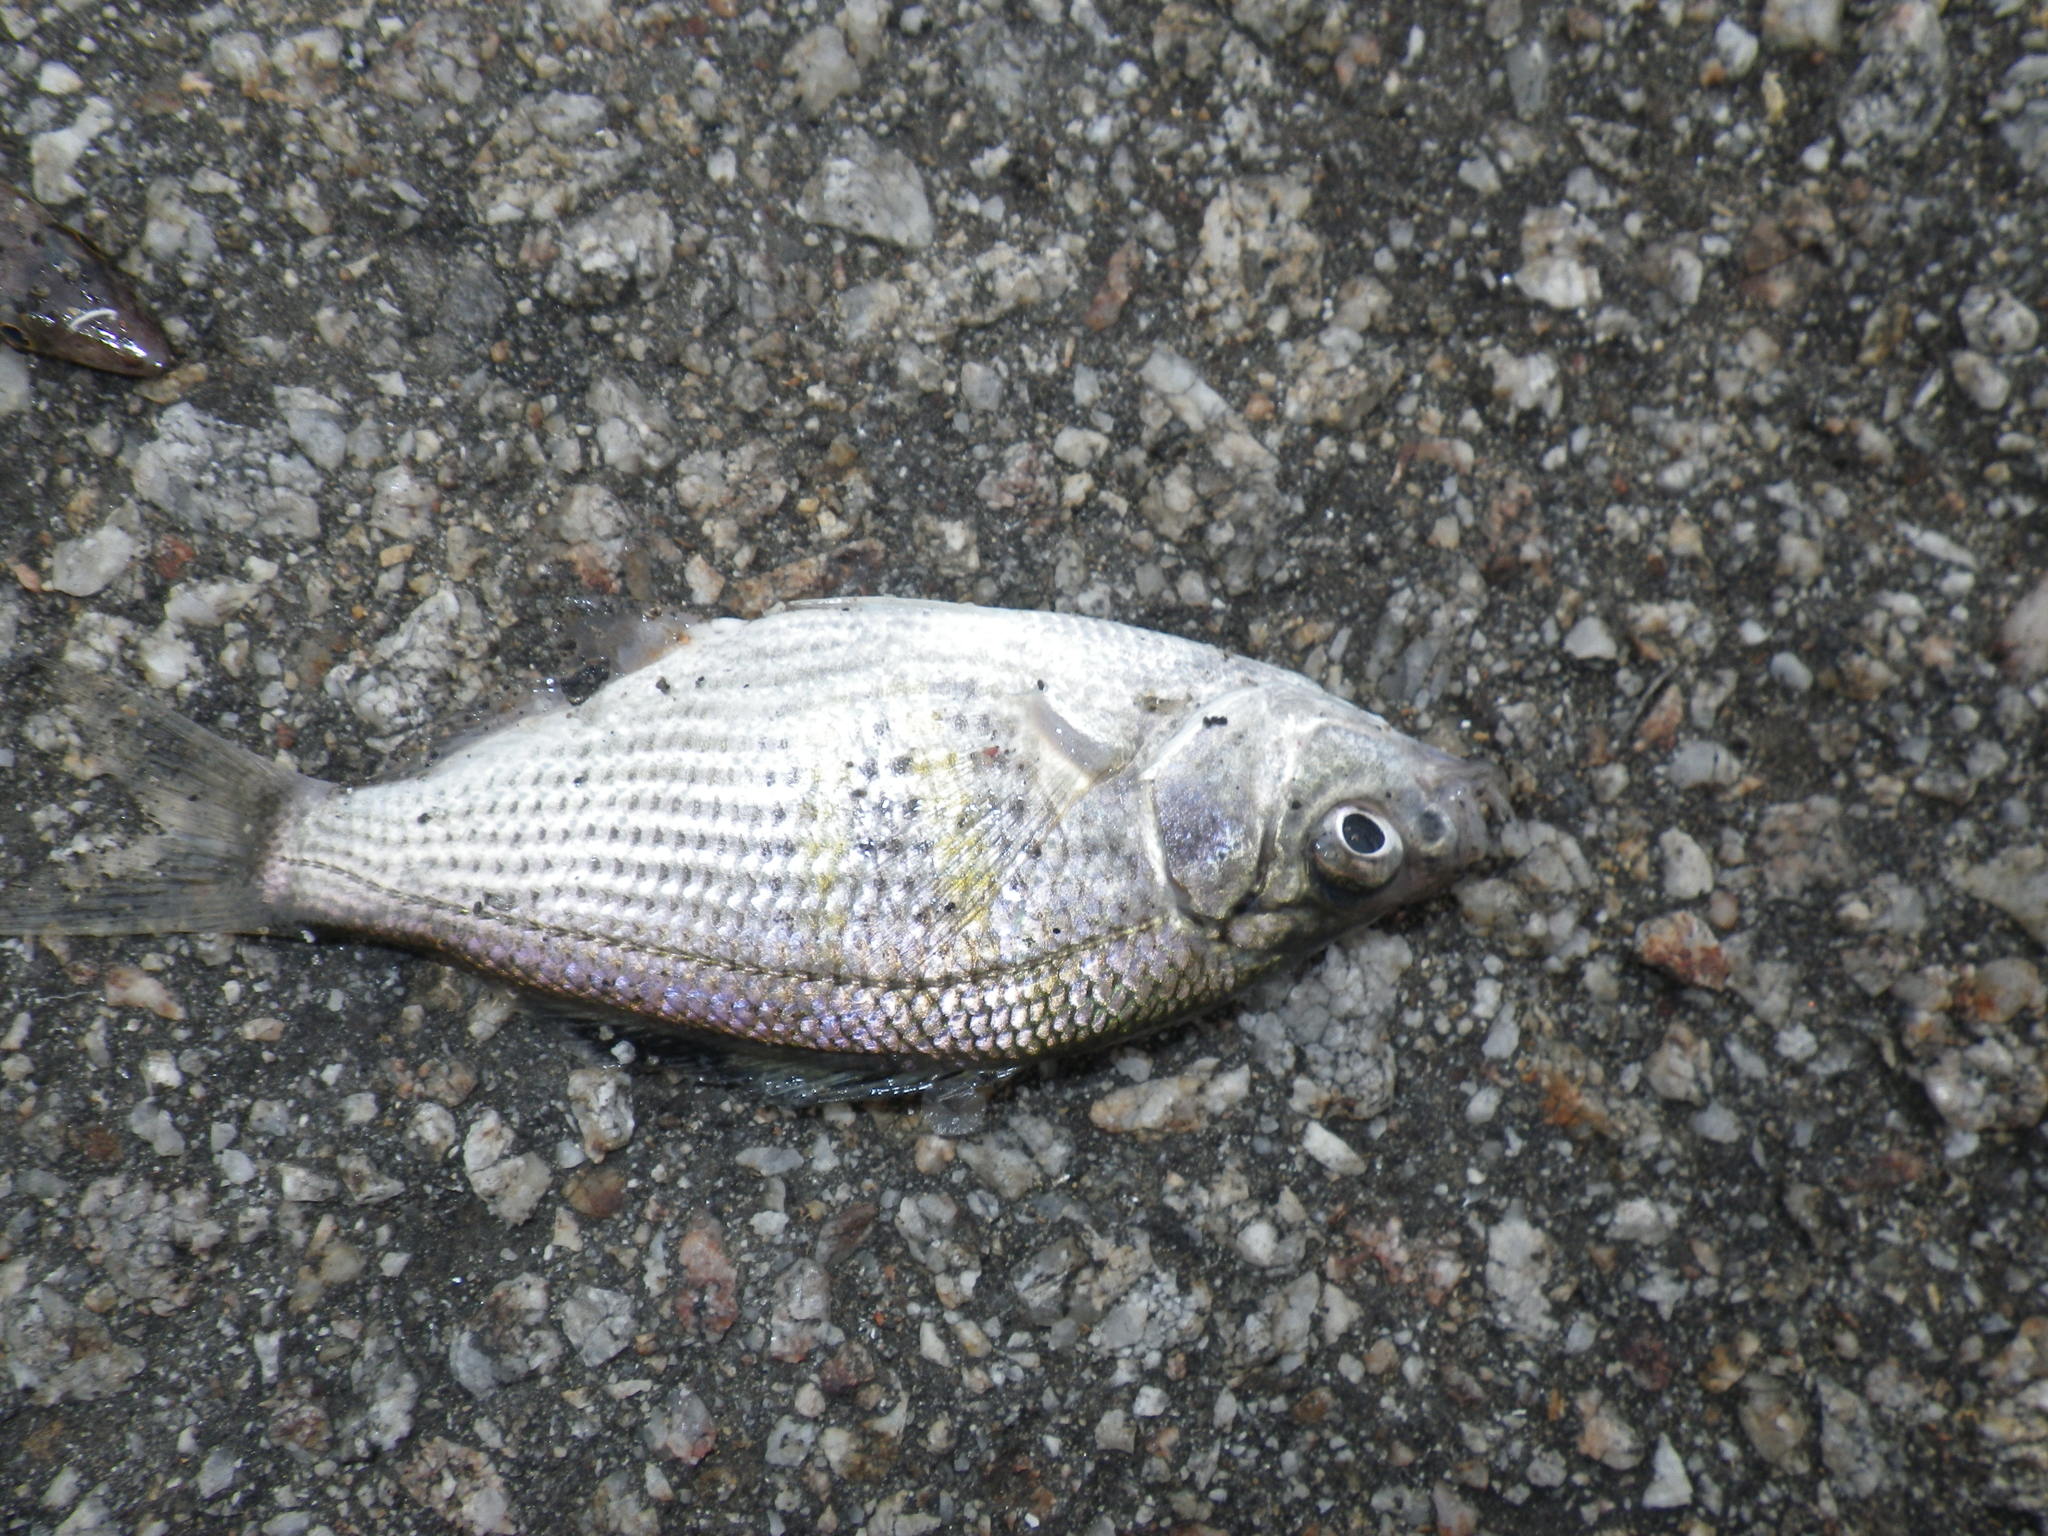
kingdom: Animalia
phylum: Chordata
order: Perciformes
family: Embiotocidae
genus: Cymatogaster
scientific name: Cymatogaster aggregata
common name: Shiner perch
